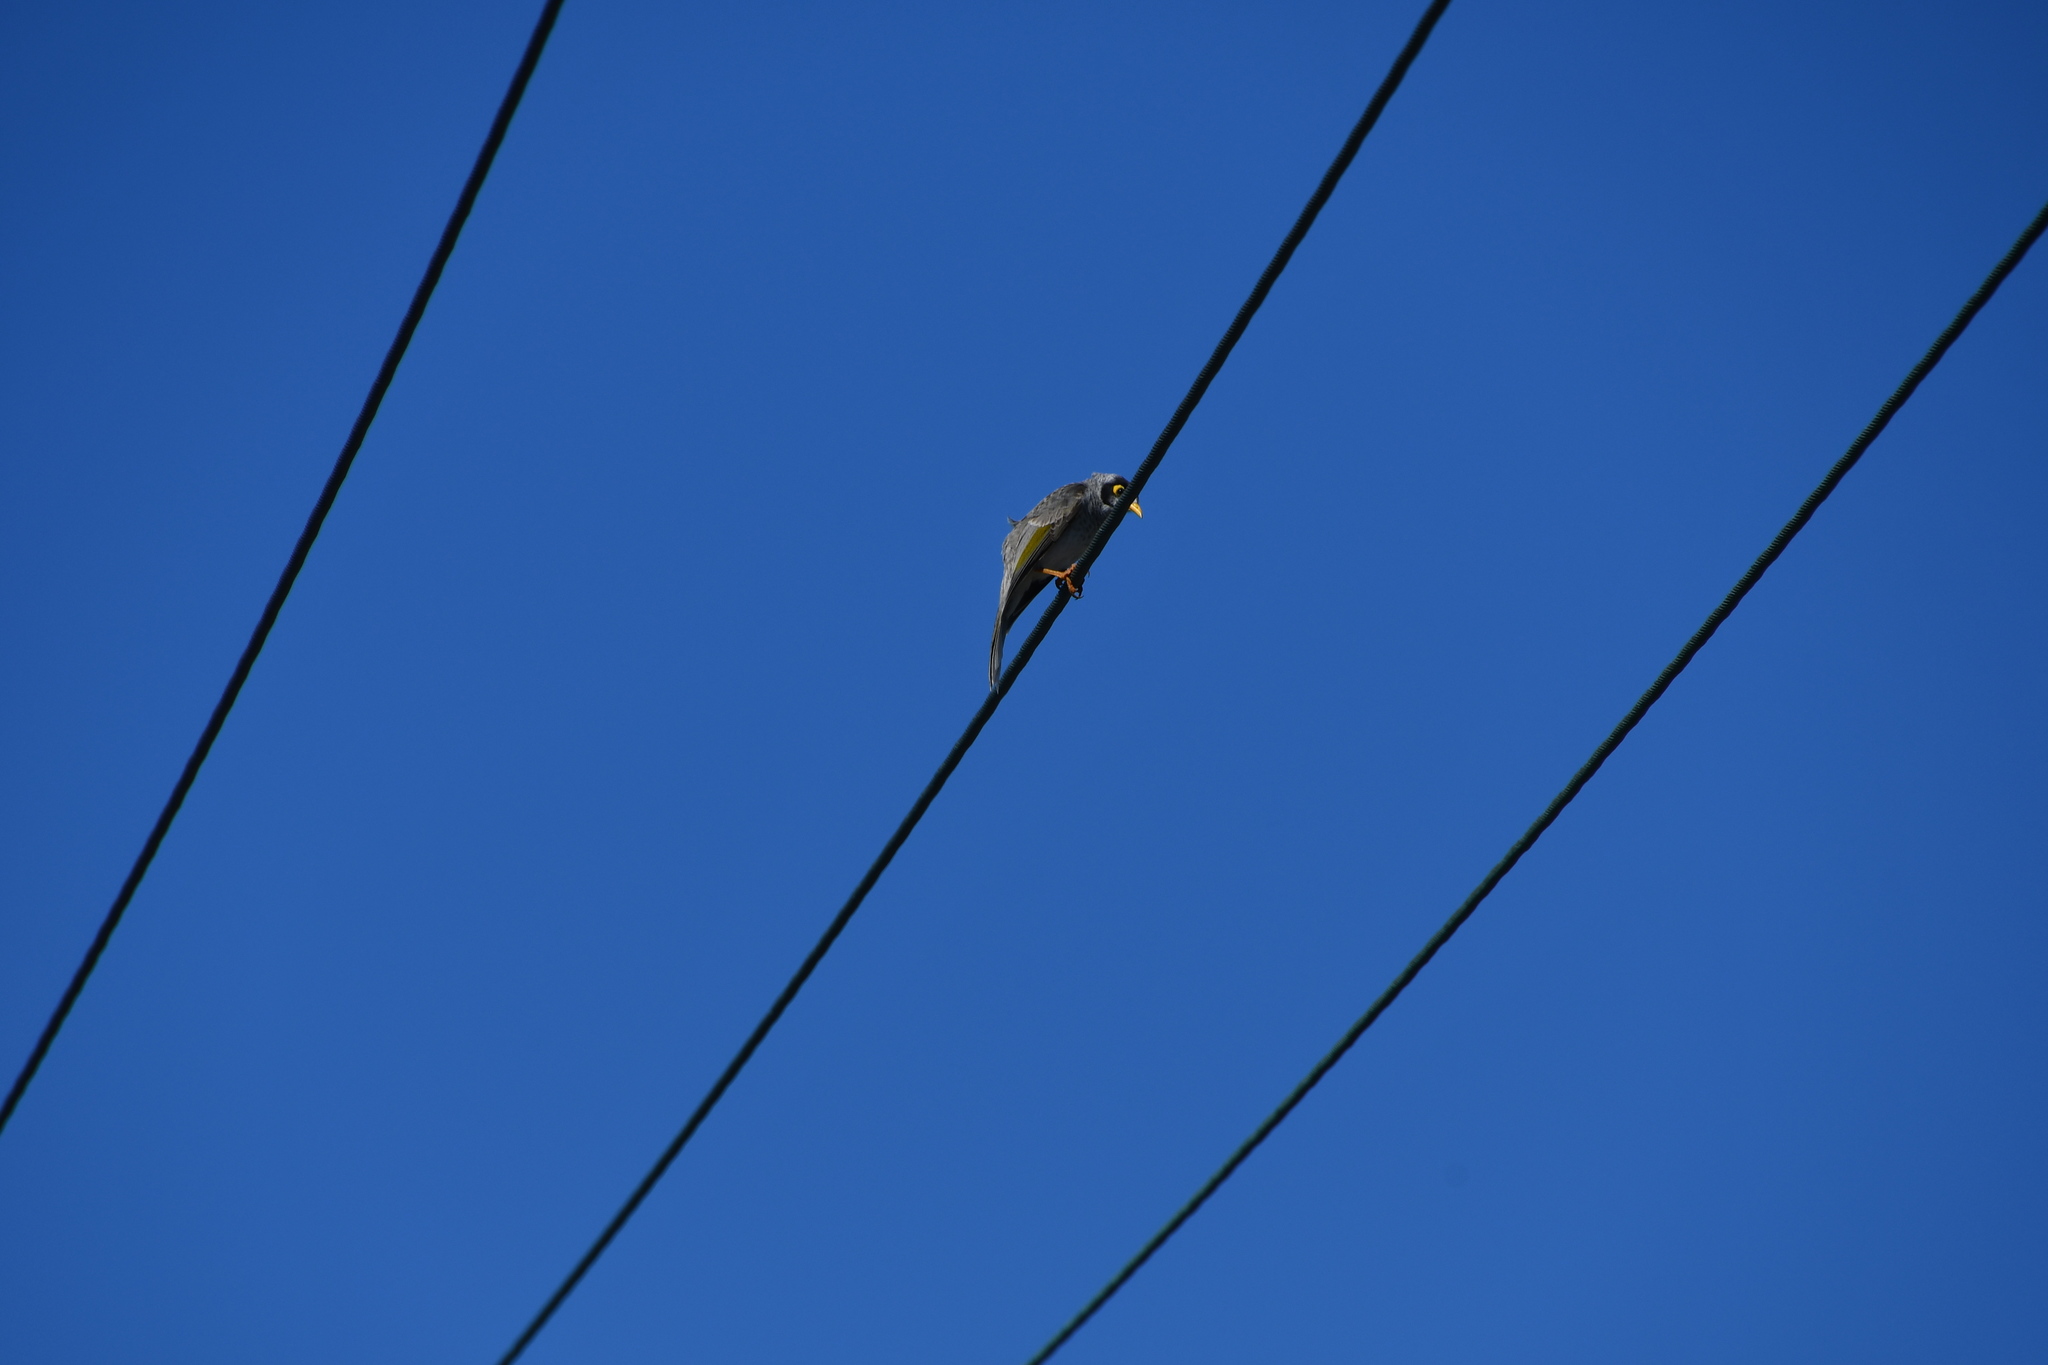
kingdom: Animalia
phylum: Chordata
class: Aves
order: Passeriformes
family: Meliphagidae
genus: Manorina
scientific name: Manorina melanocephala
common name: Noisy miner
